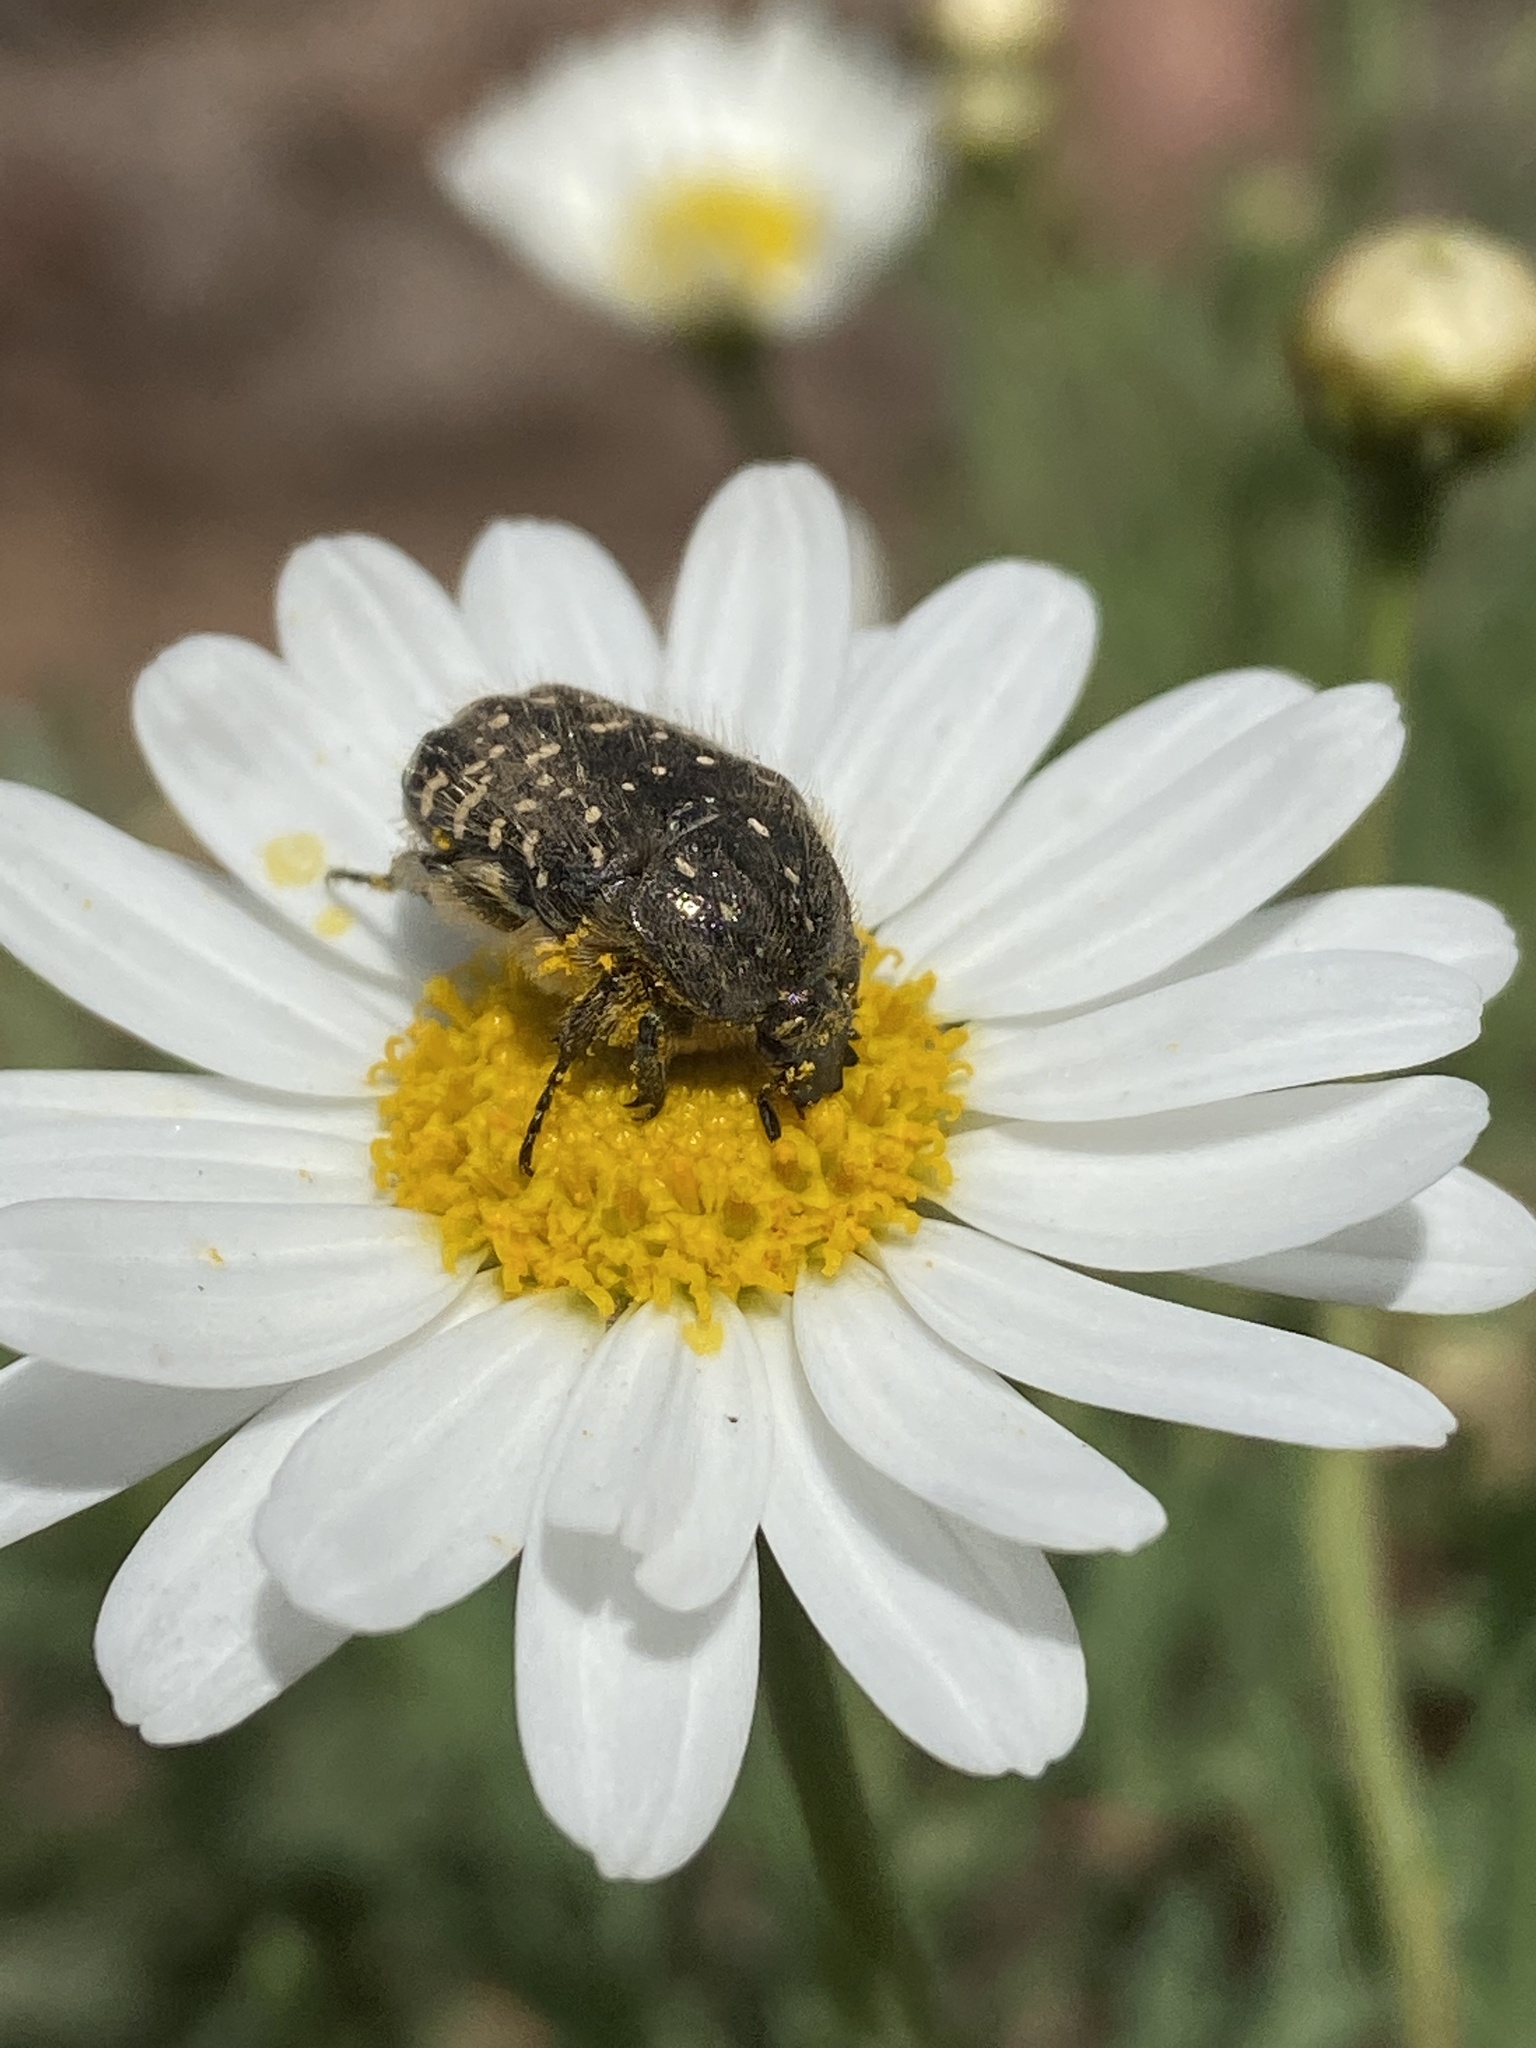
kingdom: Animalia
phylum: Arthropoda
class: Insecta
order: Coleoptera
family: Scarabaeidae
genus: Oxythyrea
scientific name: Oxythyrea funesta
